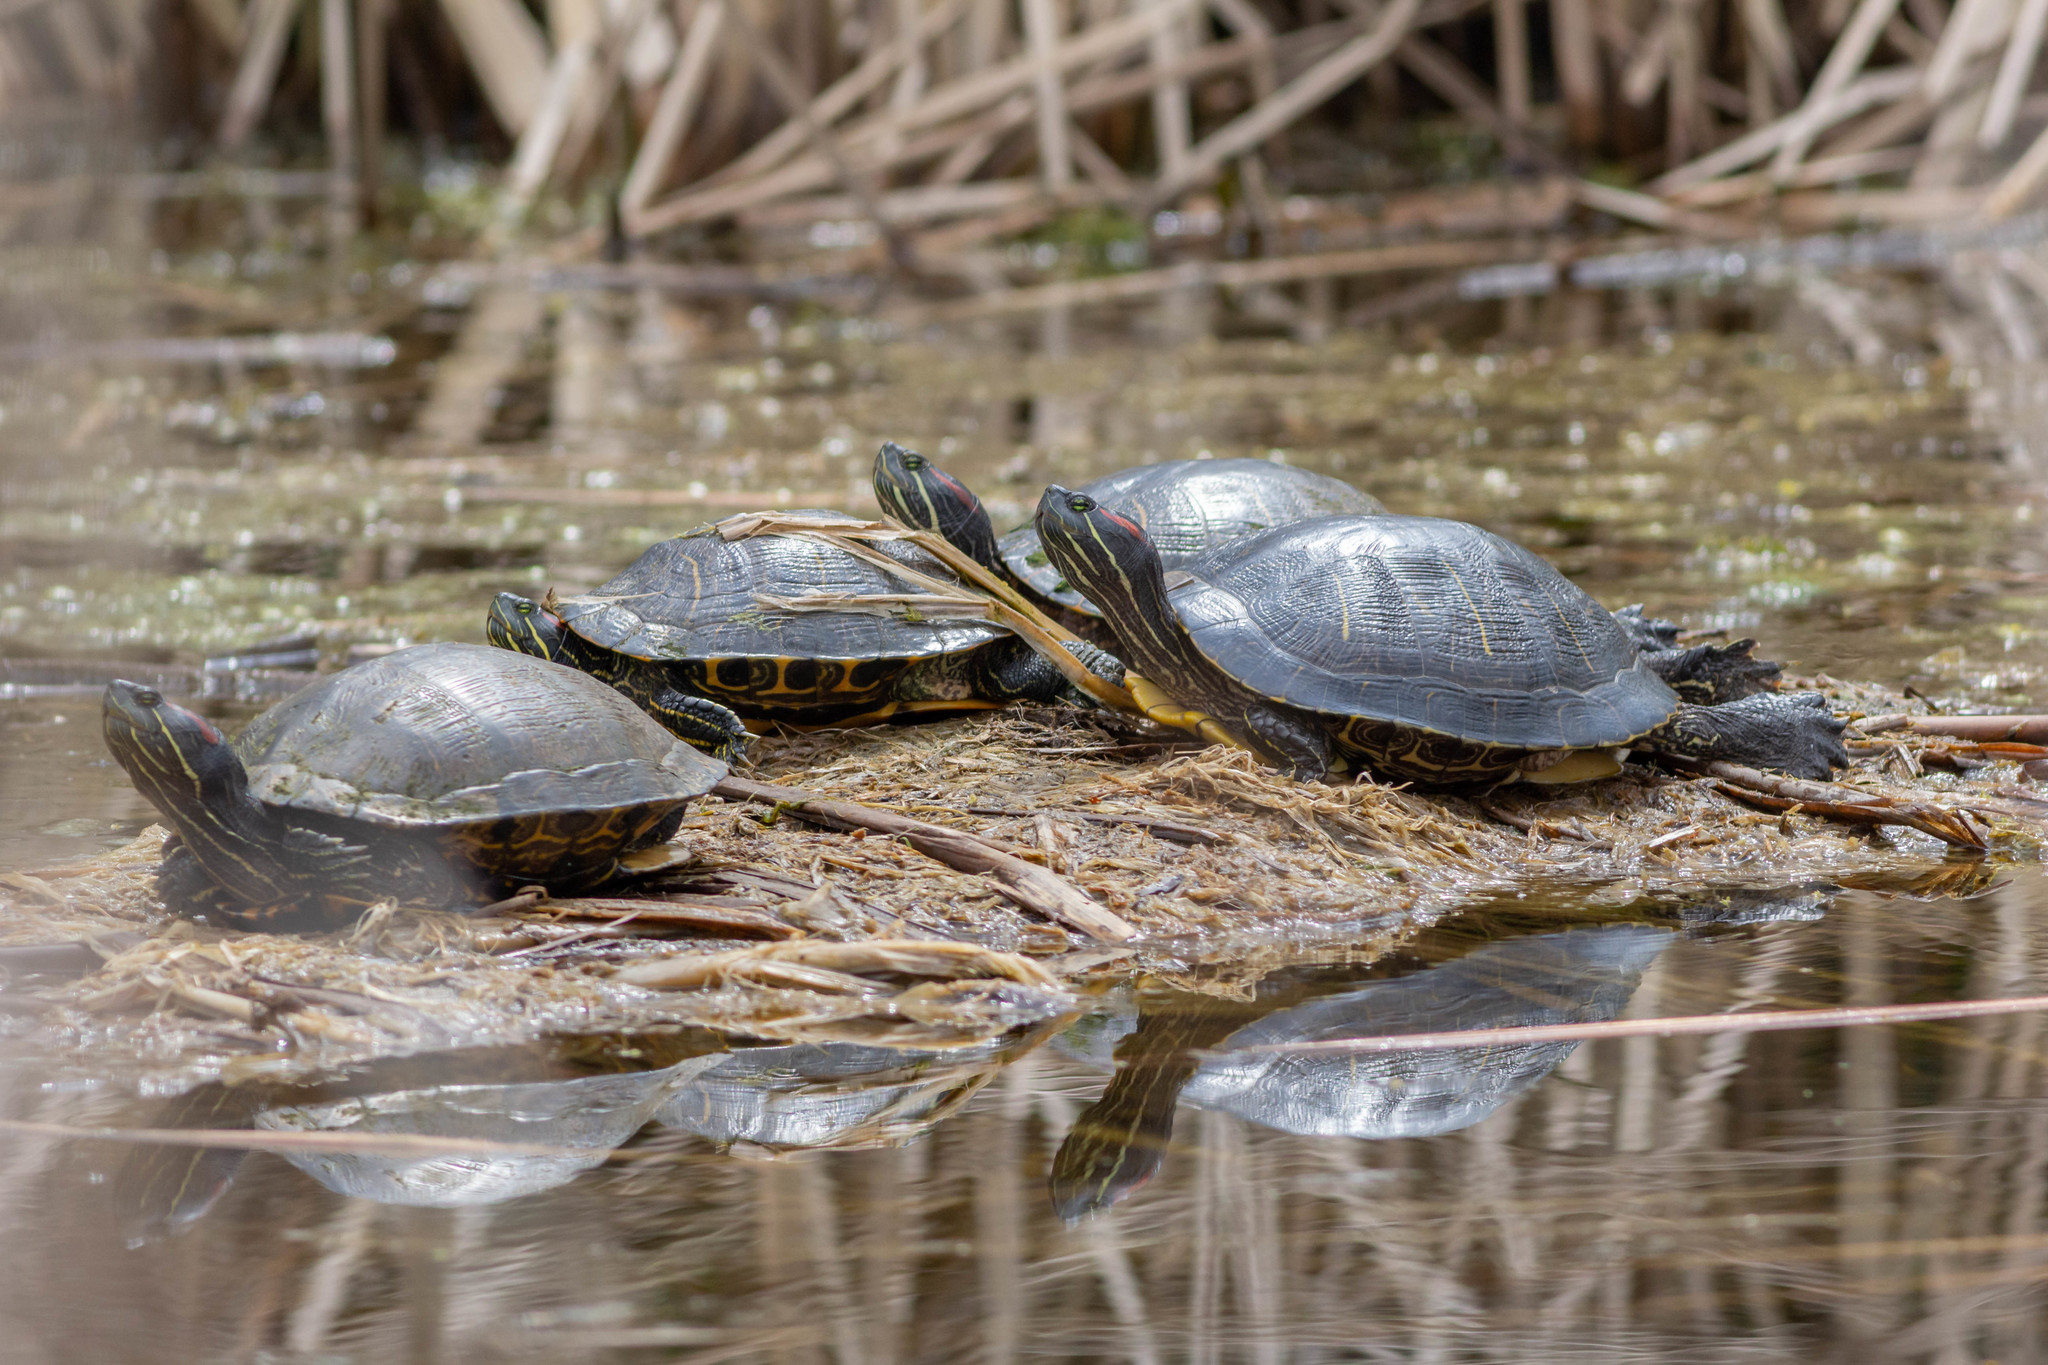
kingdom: Animalia
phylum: Chordata
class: Testudines
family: Emydidae
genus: Trachemys
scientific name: Trachemys scripta
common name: Slider
